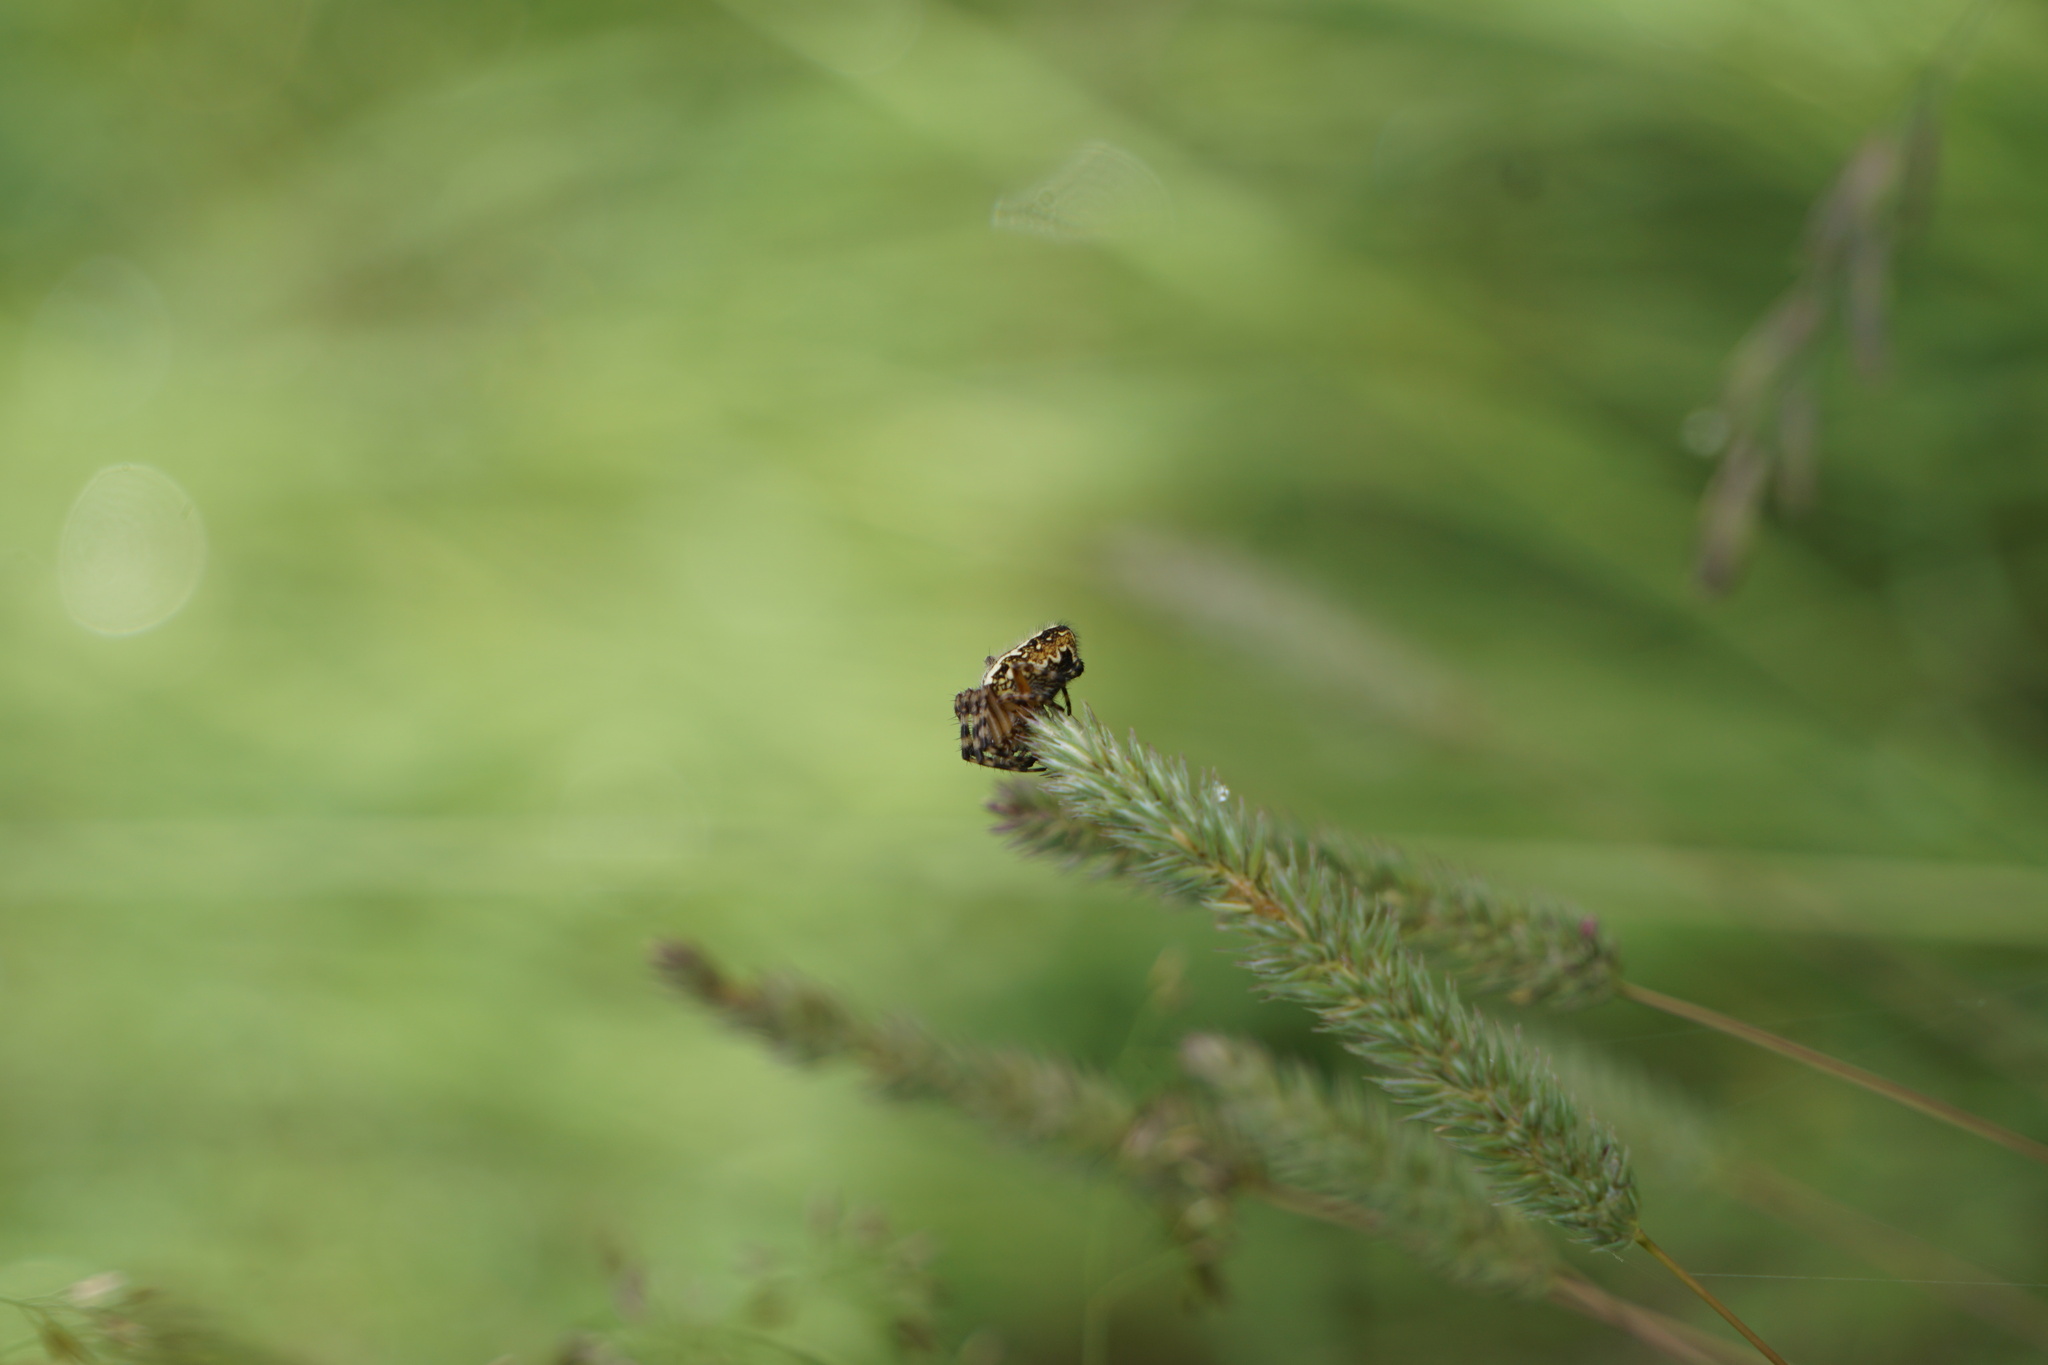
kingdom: Animalia
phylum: Arthropoda
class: Arachnida
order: Araneae
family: Araneidae
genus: Aculepeira
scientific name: Aculepeira ceropegia
